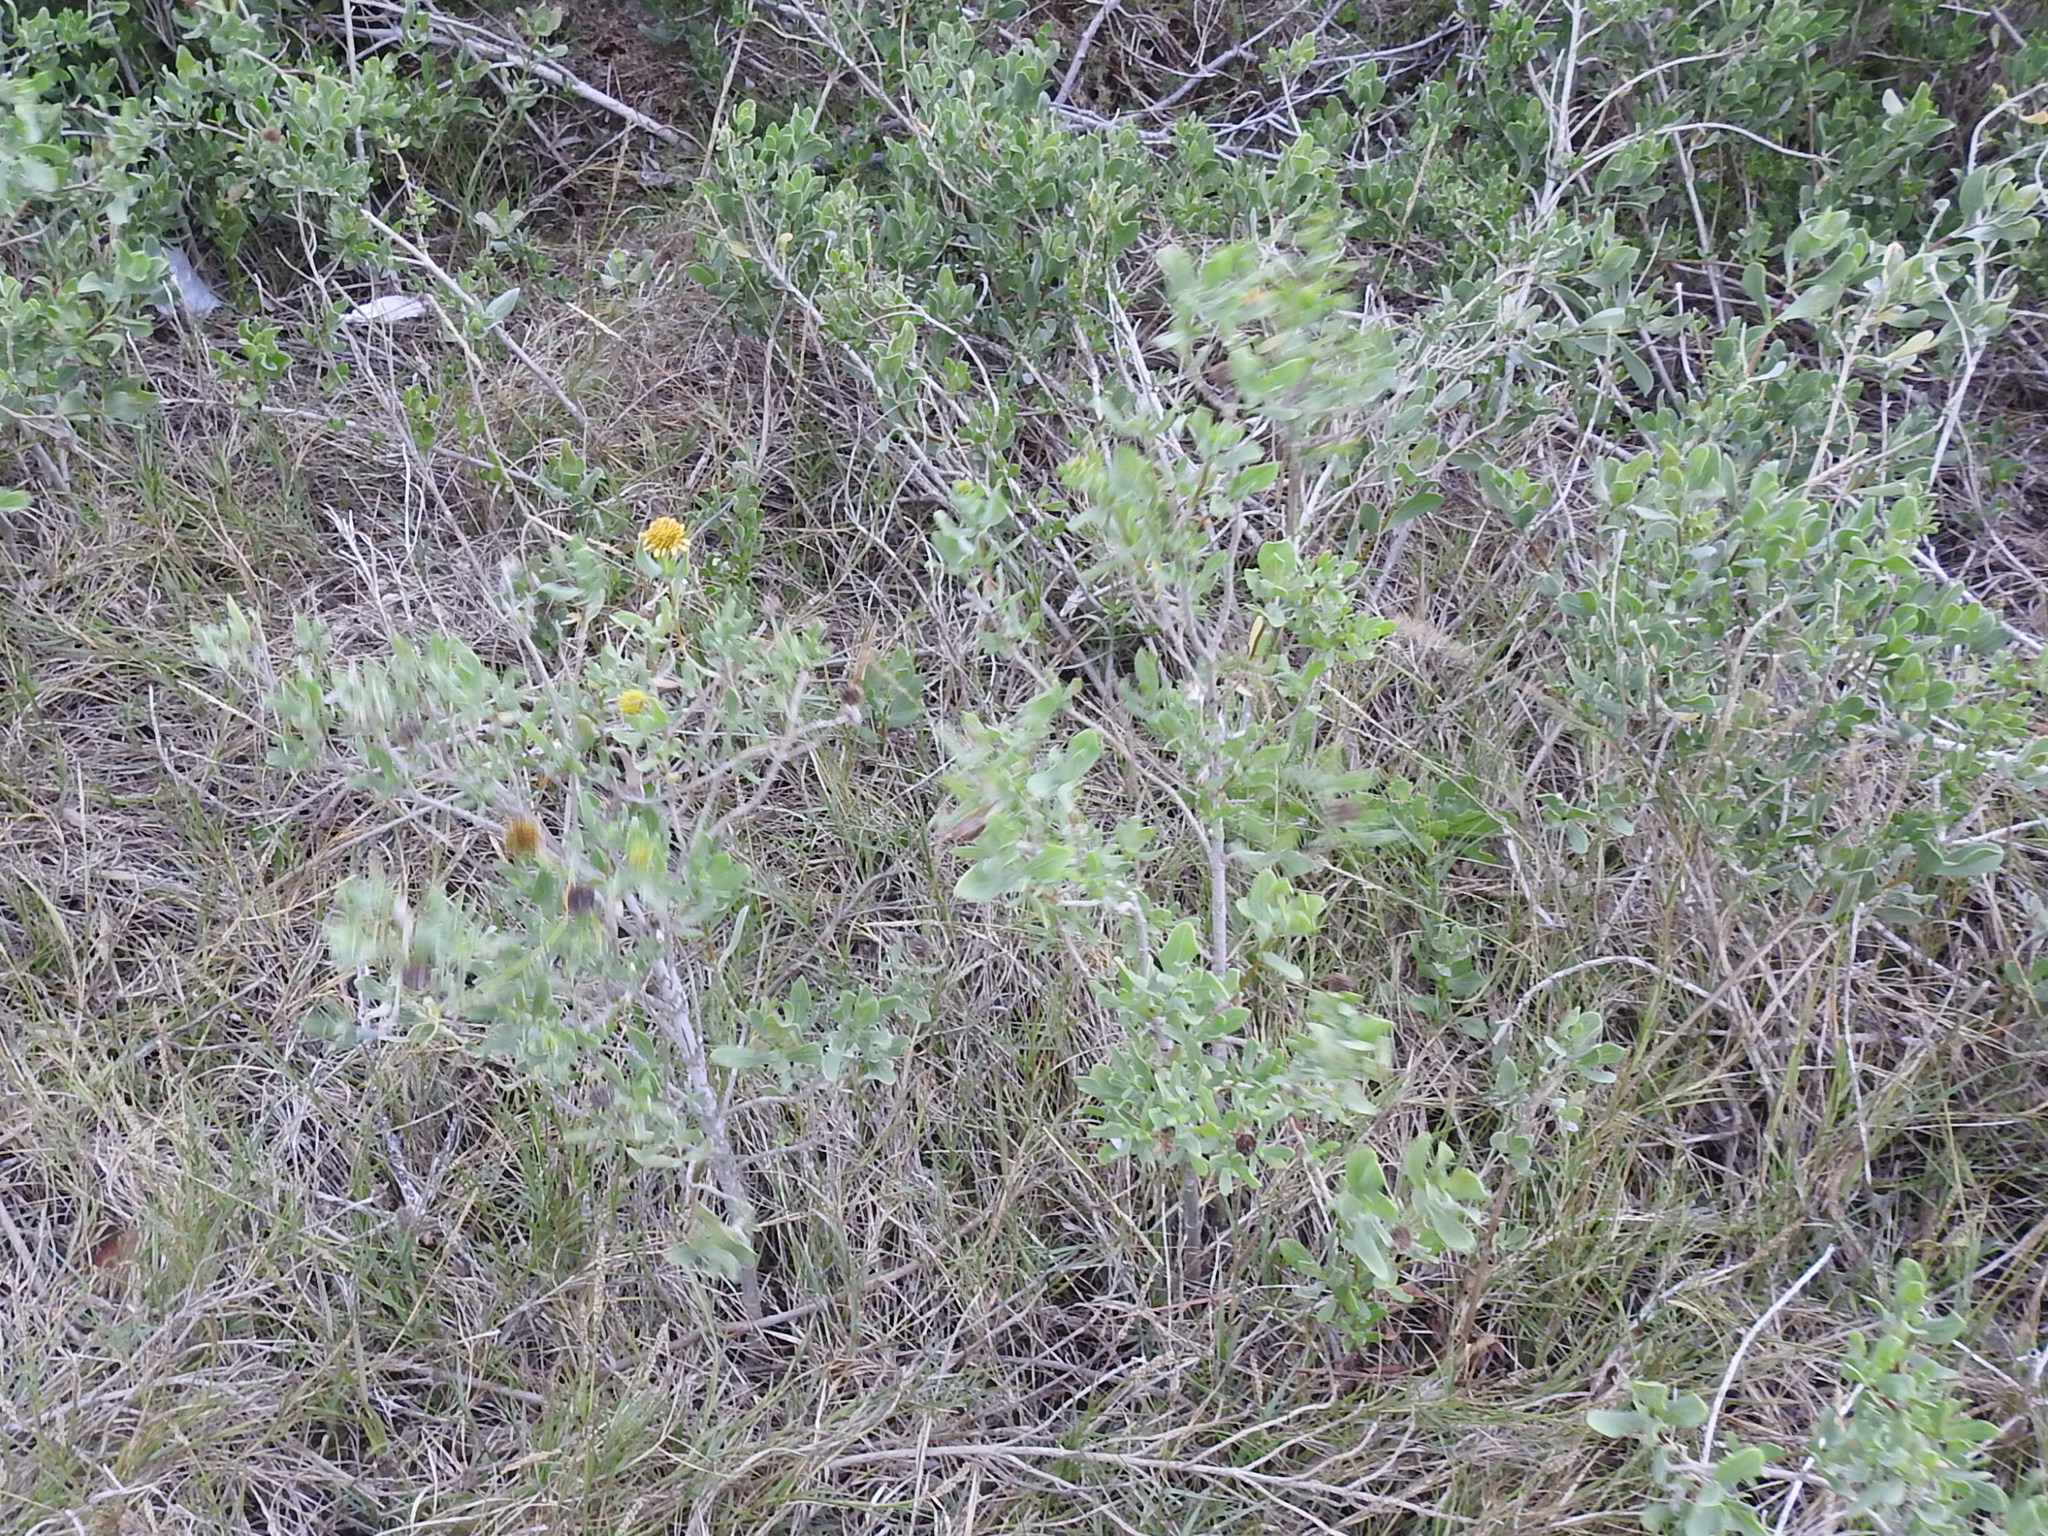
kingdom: Plantae
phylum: Tracheophyta
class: Magnoliopsida
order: Asterales
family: Asteraceae
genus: Borrichia
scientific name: Borrichia frutescens
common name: Sea oxeye
